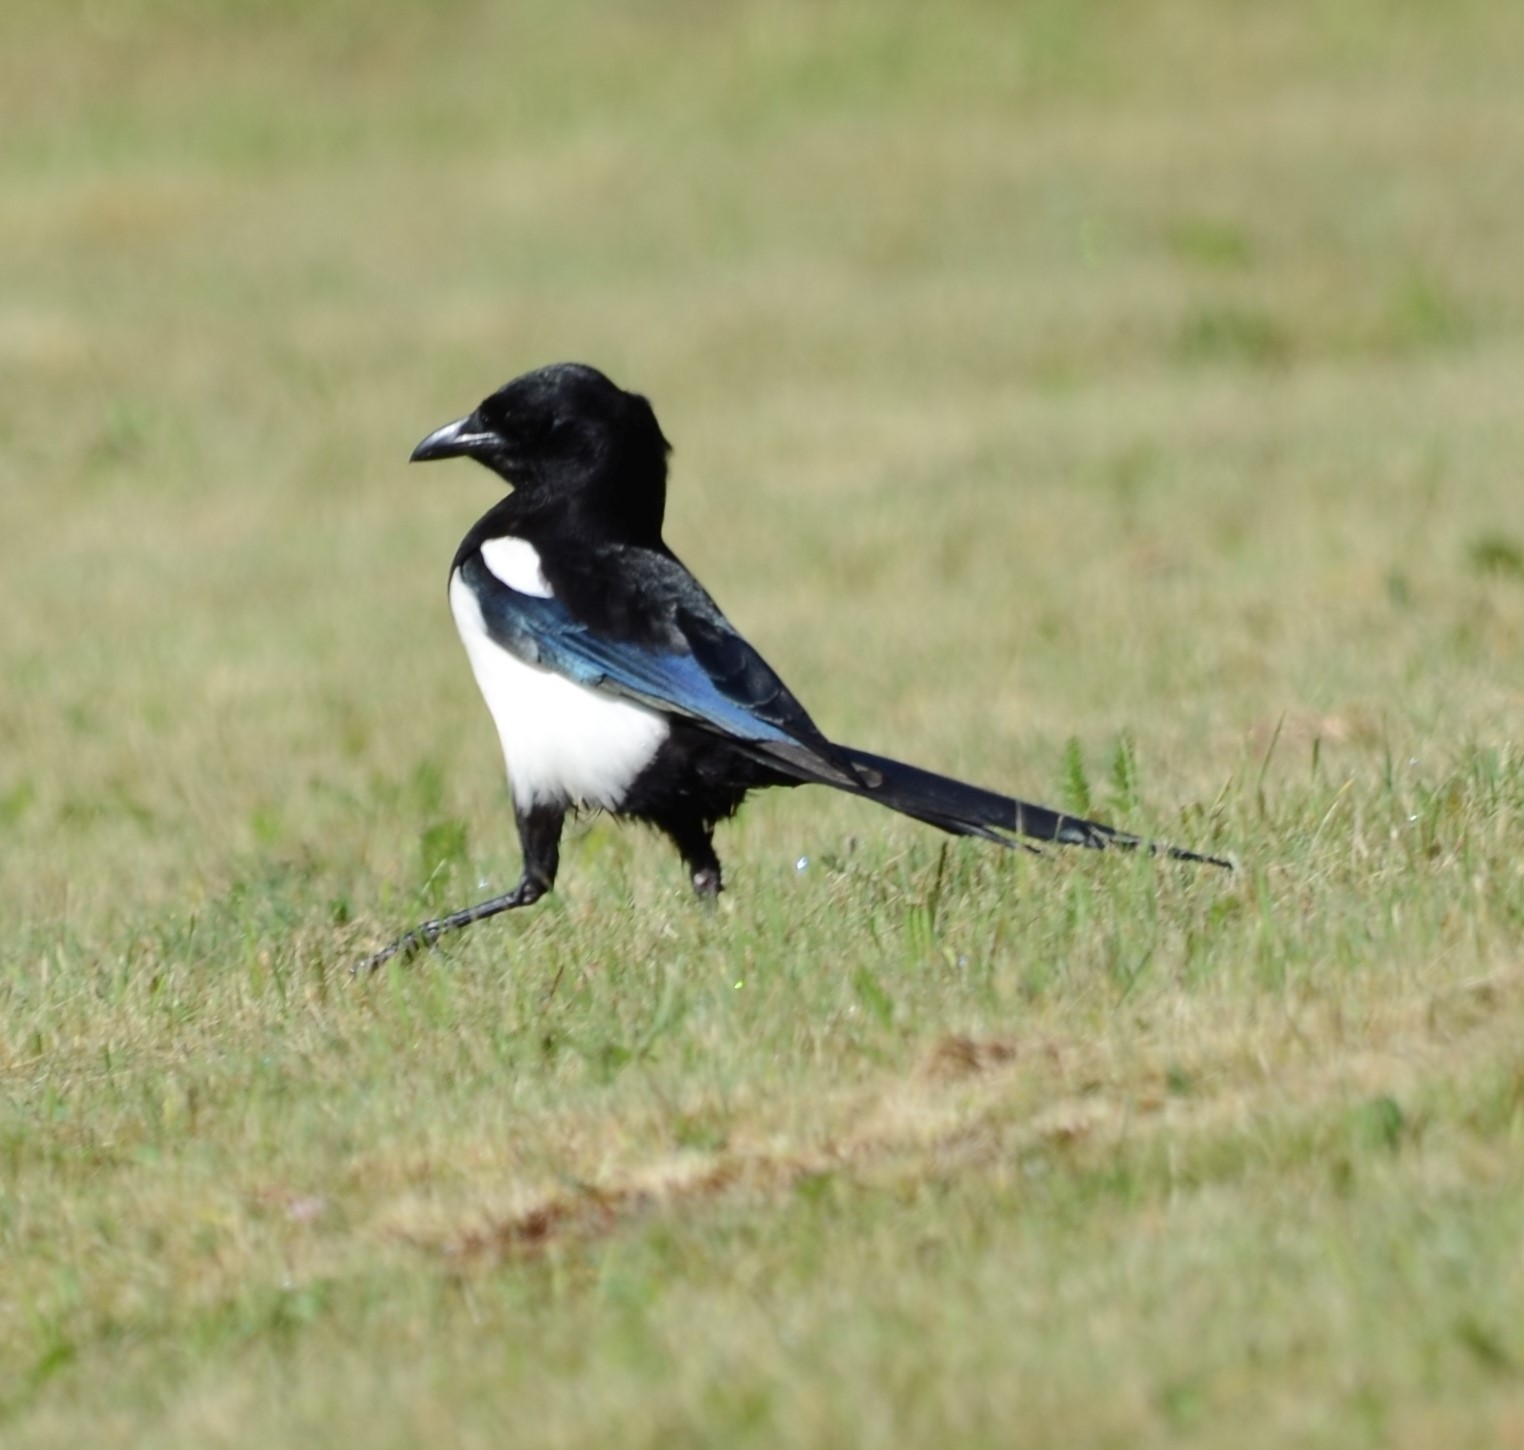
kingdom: Animalia
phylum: Chordata
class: Aves
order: Passeriformes
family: Corvidae
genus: Pica
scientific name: Pica pica
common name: Eurasian magpie
